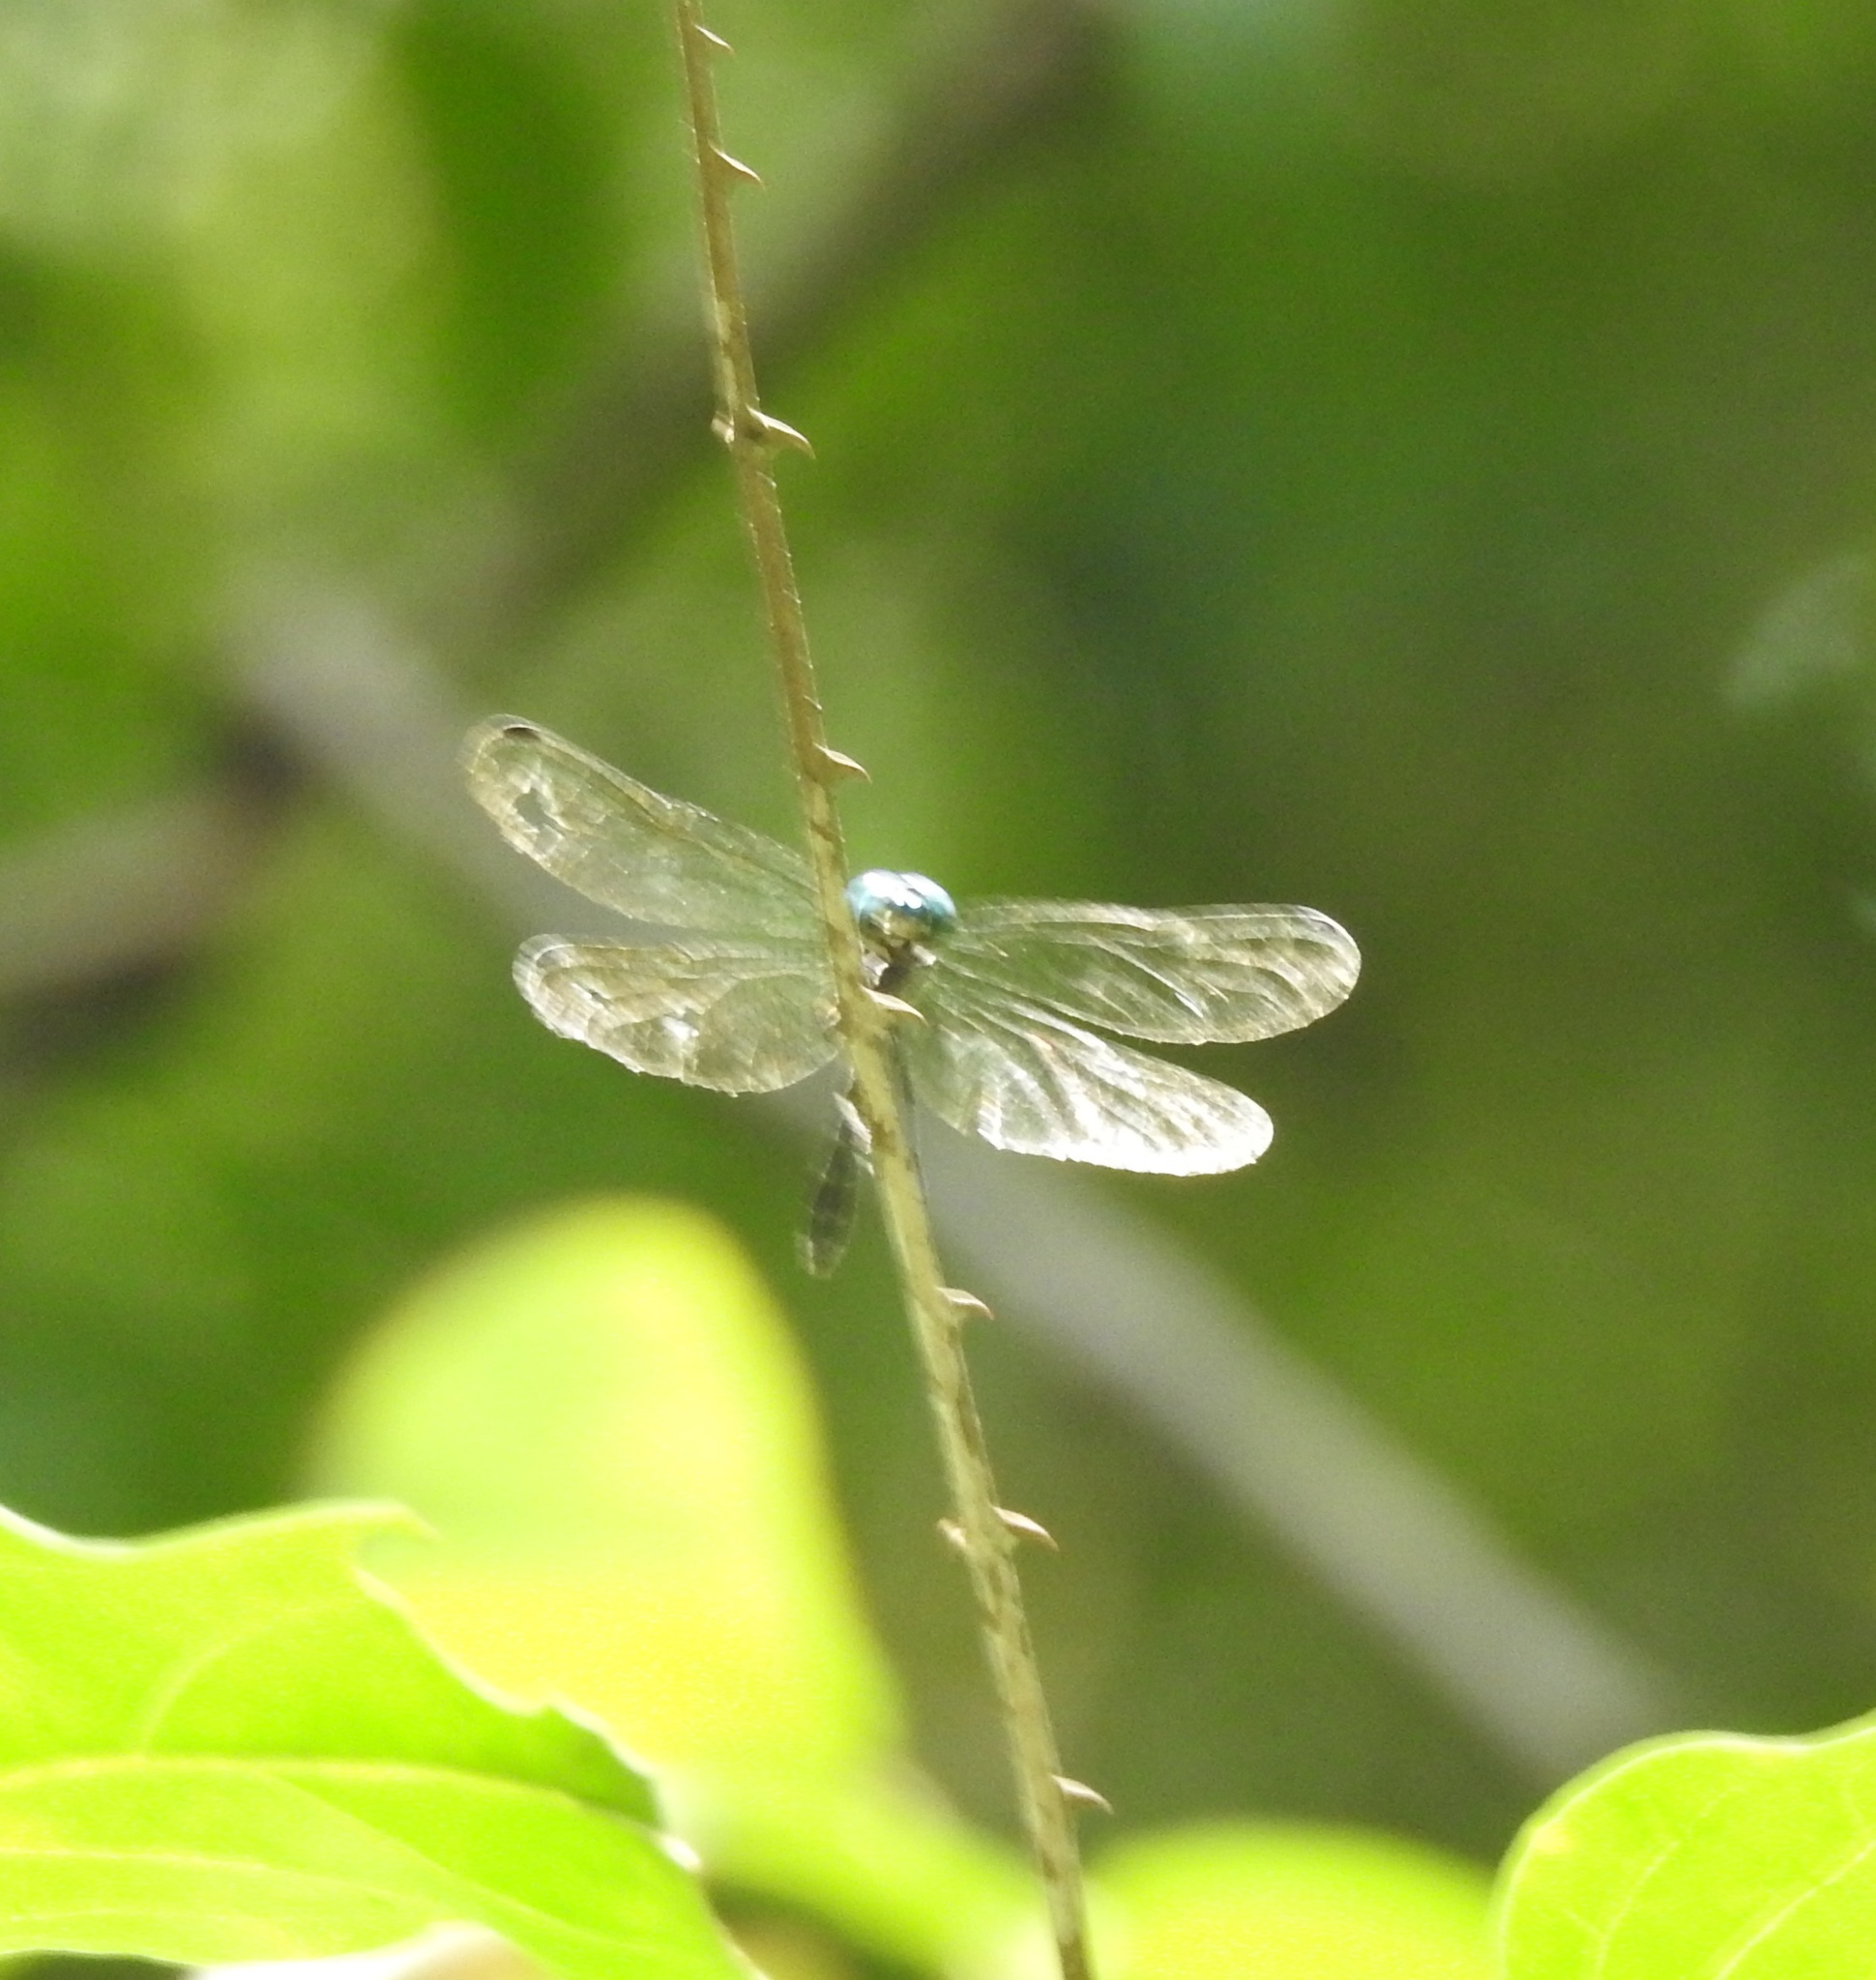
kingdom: Animalia
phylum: Arthropoda
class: Insecta
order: Odonata
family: Libellulidae
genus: Hylaeothemis
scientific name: Hylaeothemis apicalis
